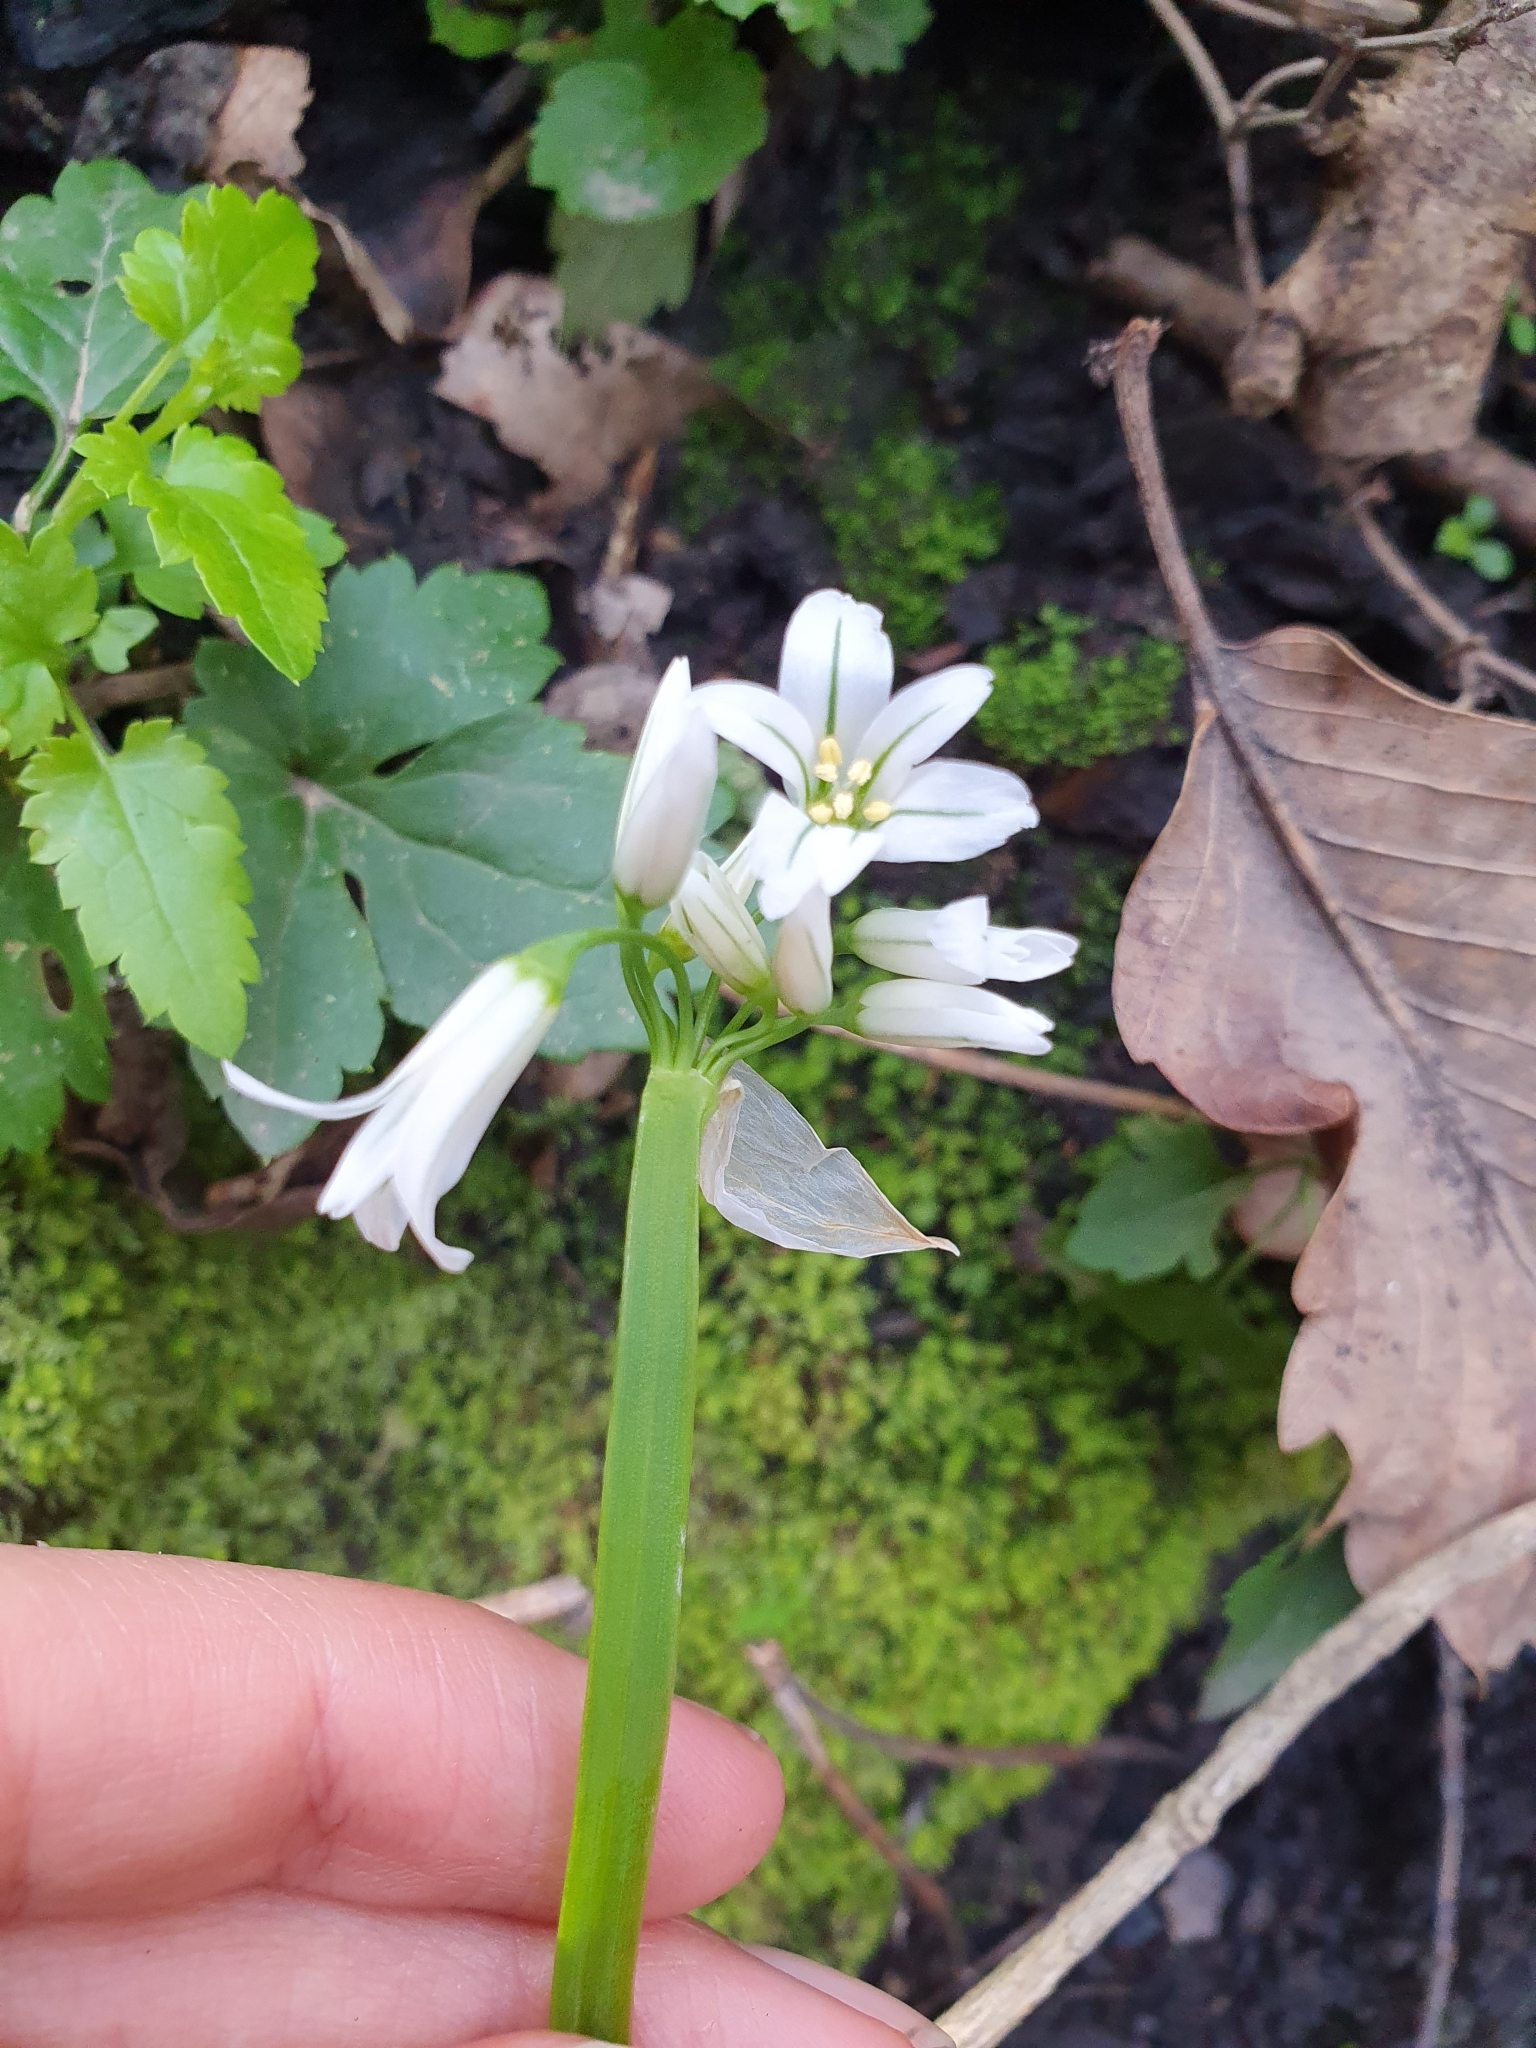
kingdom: Plantae
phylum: Tracheophyta
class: Liliopsida
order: Asparagales
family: Amaryllidaceae
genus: Allium
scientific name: Allium triquetrum
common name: Three-cornered garlic
